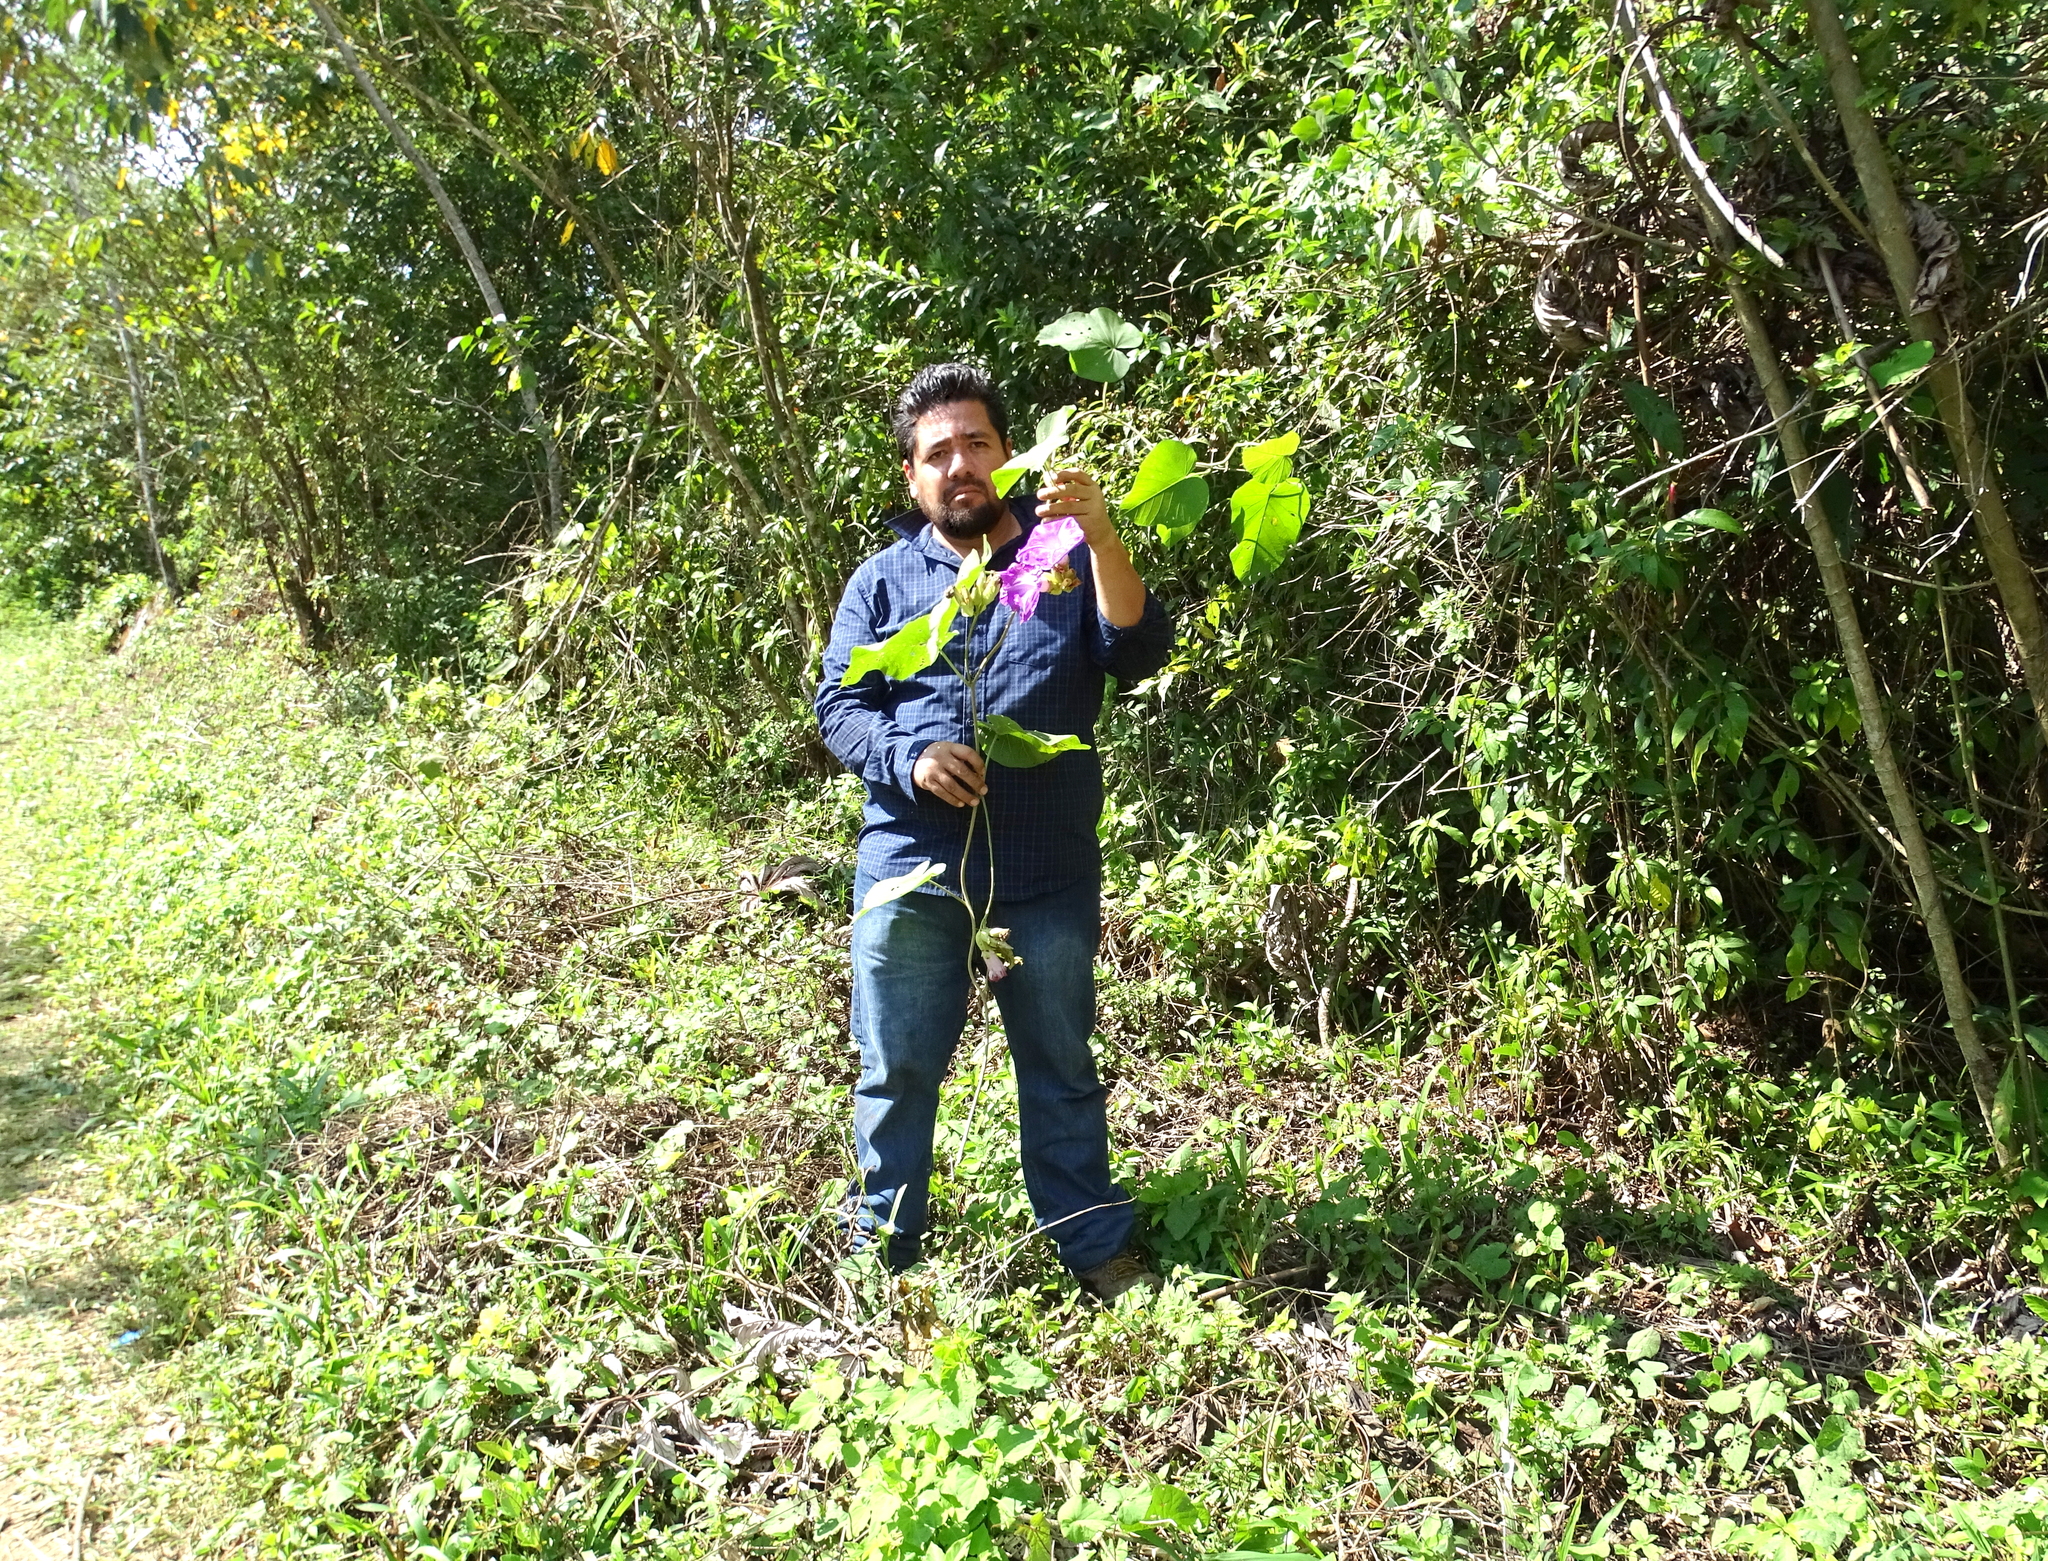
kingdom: Plantae
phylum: Tracheophyta
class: Magnoliopsida
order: Solanales
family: Convolvulaceae
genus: Ipomoea
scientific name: Ipomoea mairetii
